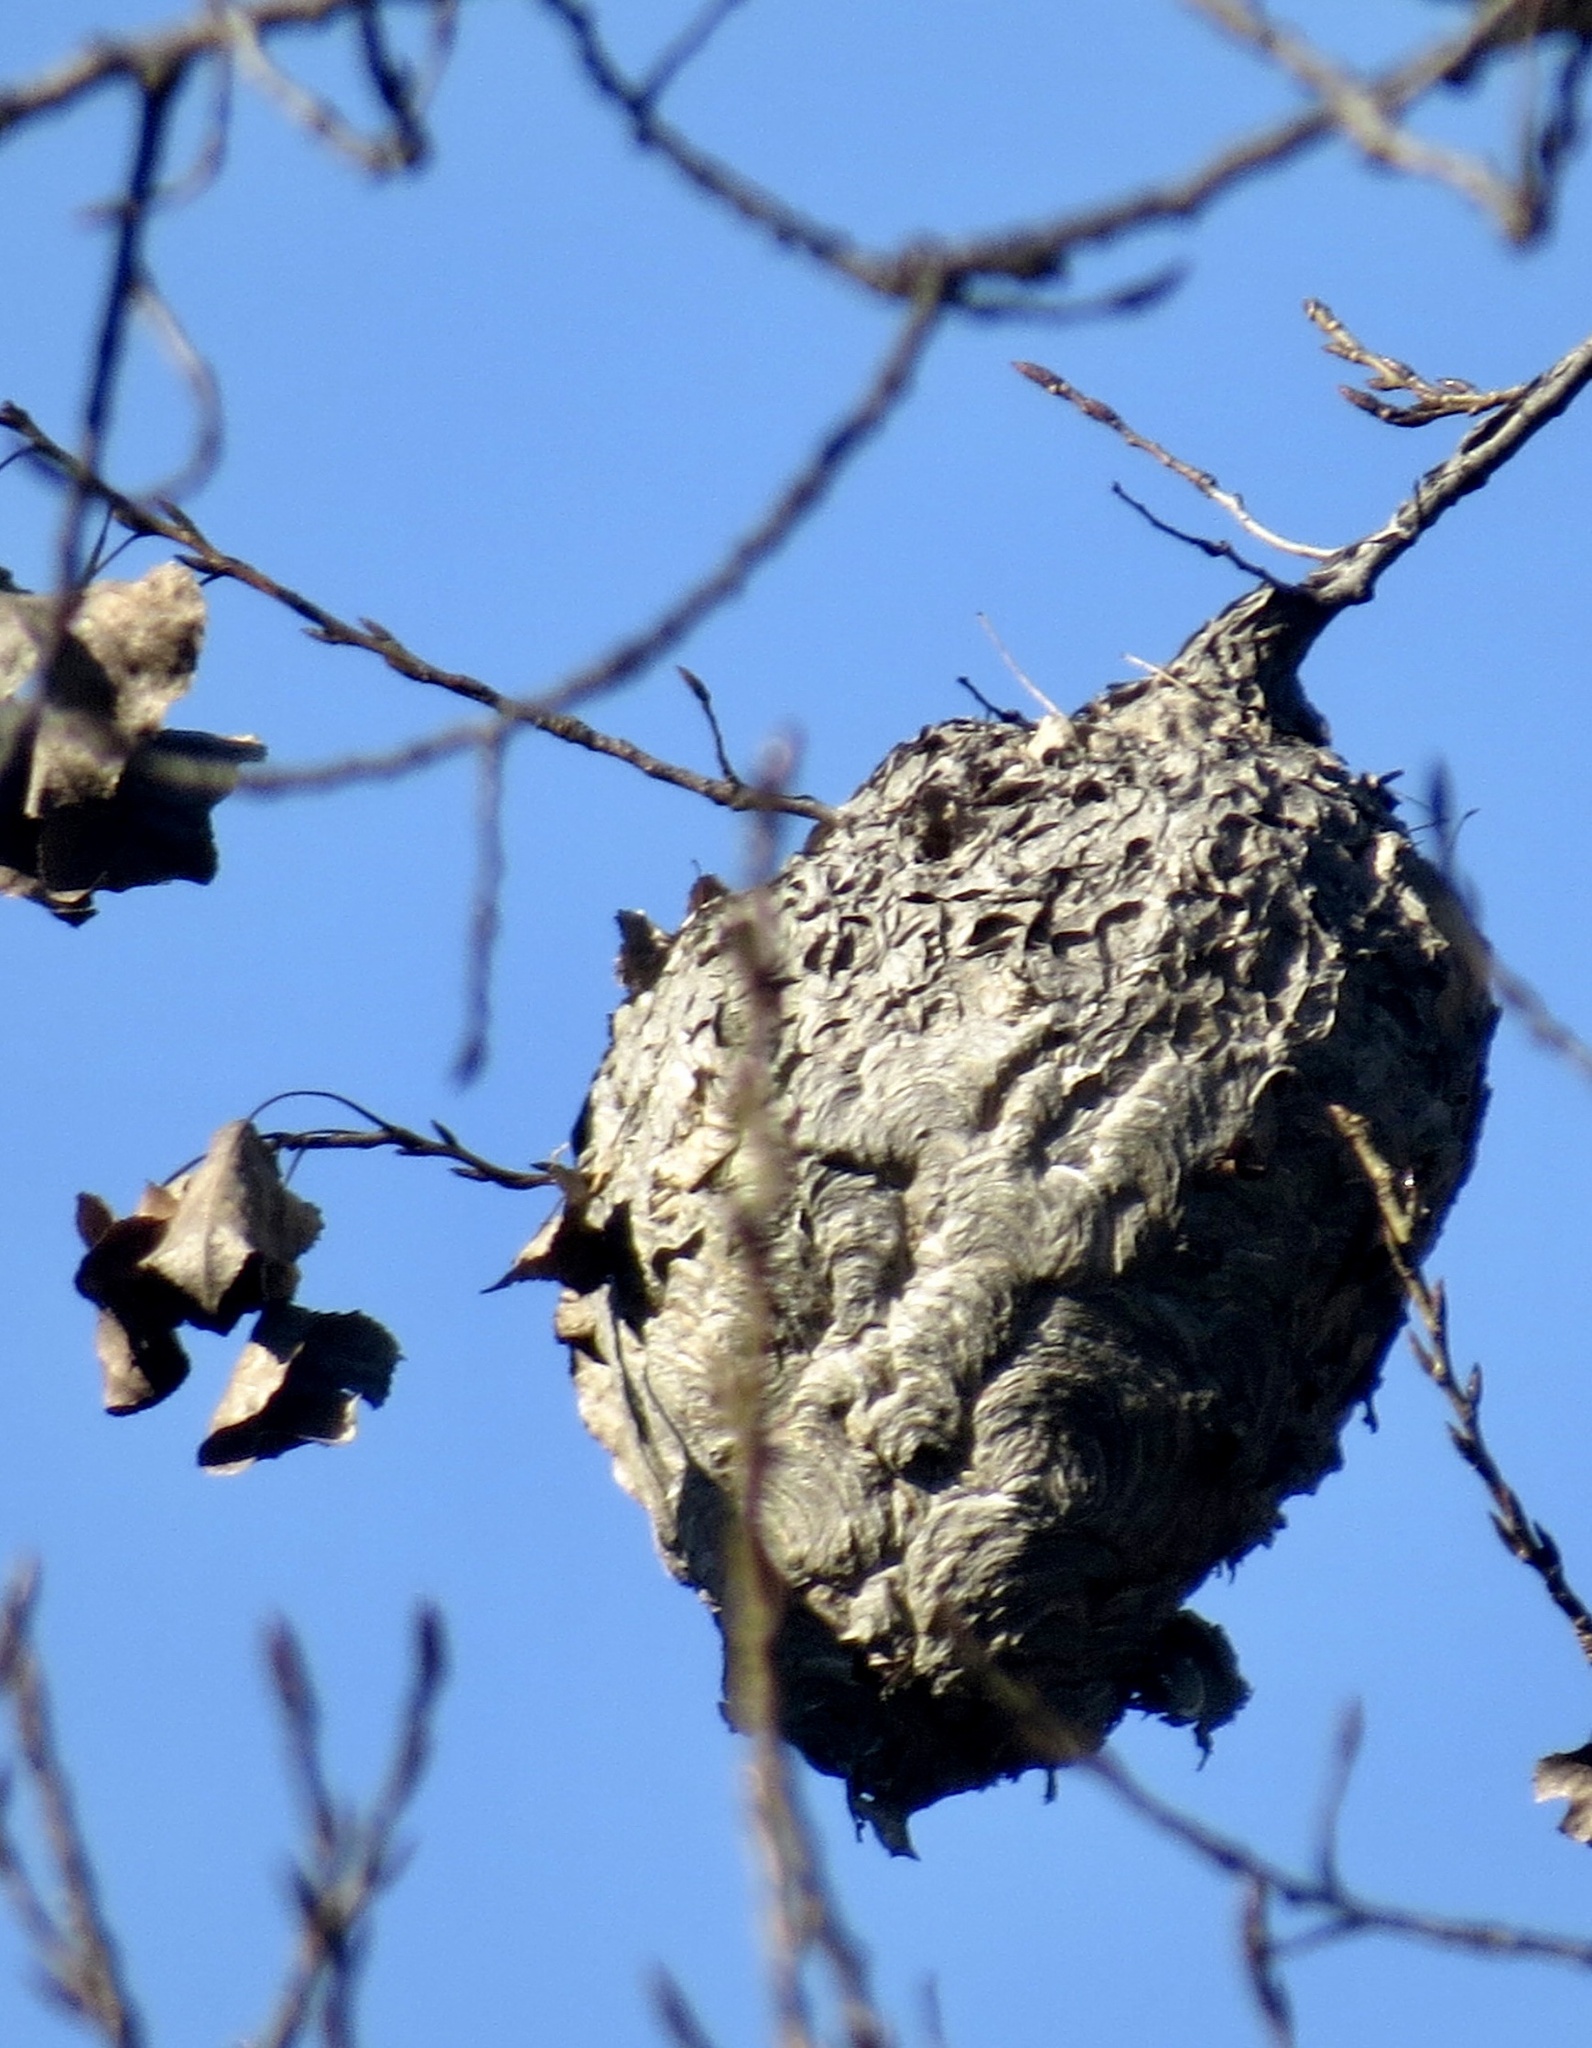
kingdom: Animalia
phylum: Arthropoda
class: Insecta
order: Hymenoptera
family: Vespidae
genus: Dolichovespula
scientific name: Dolichovespula maculata
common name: Bald-faced hornet
